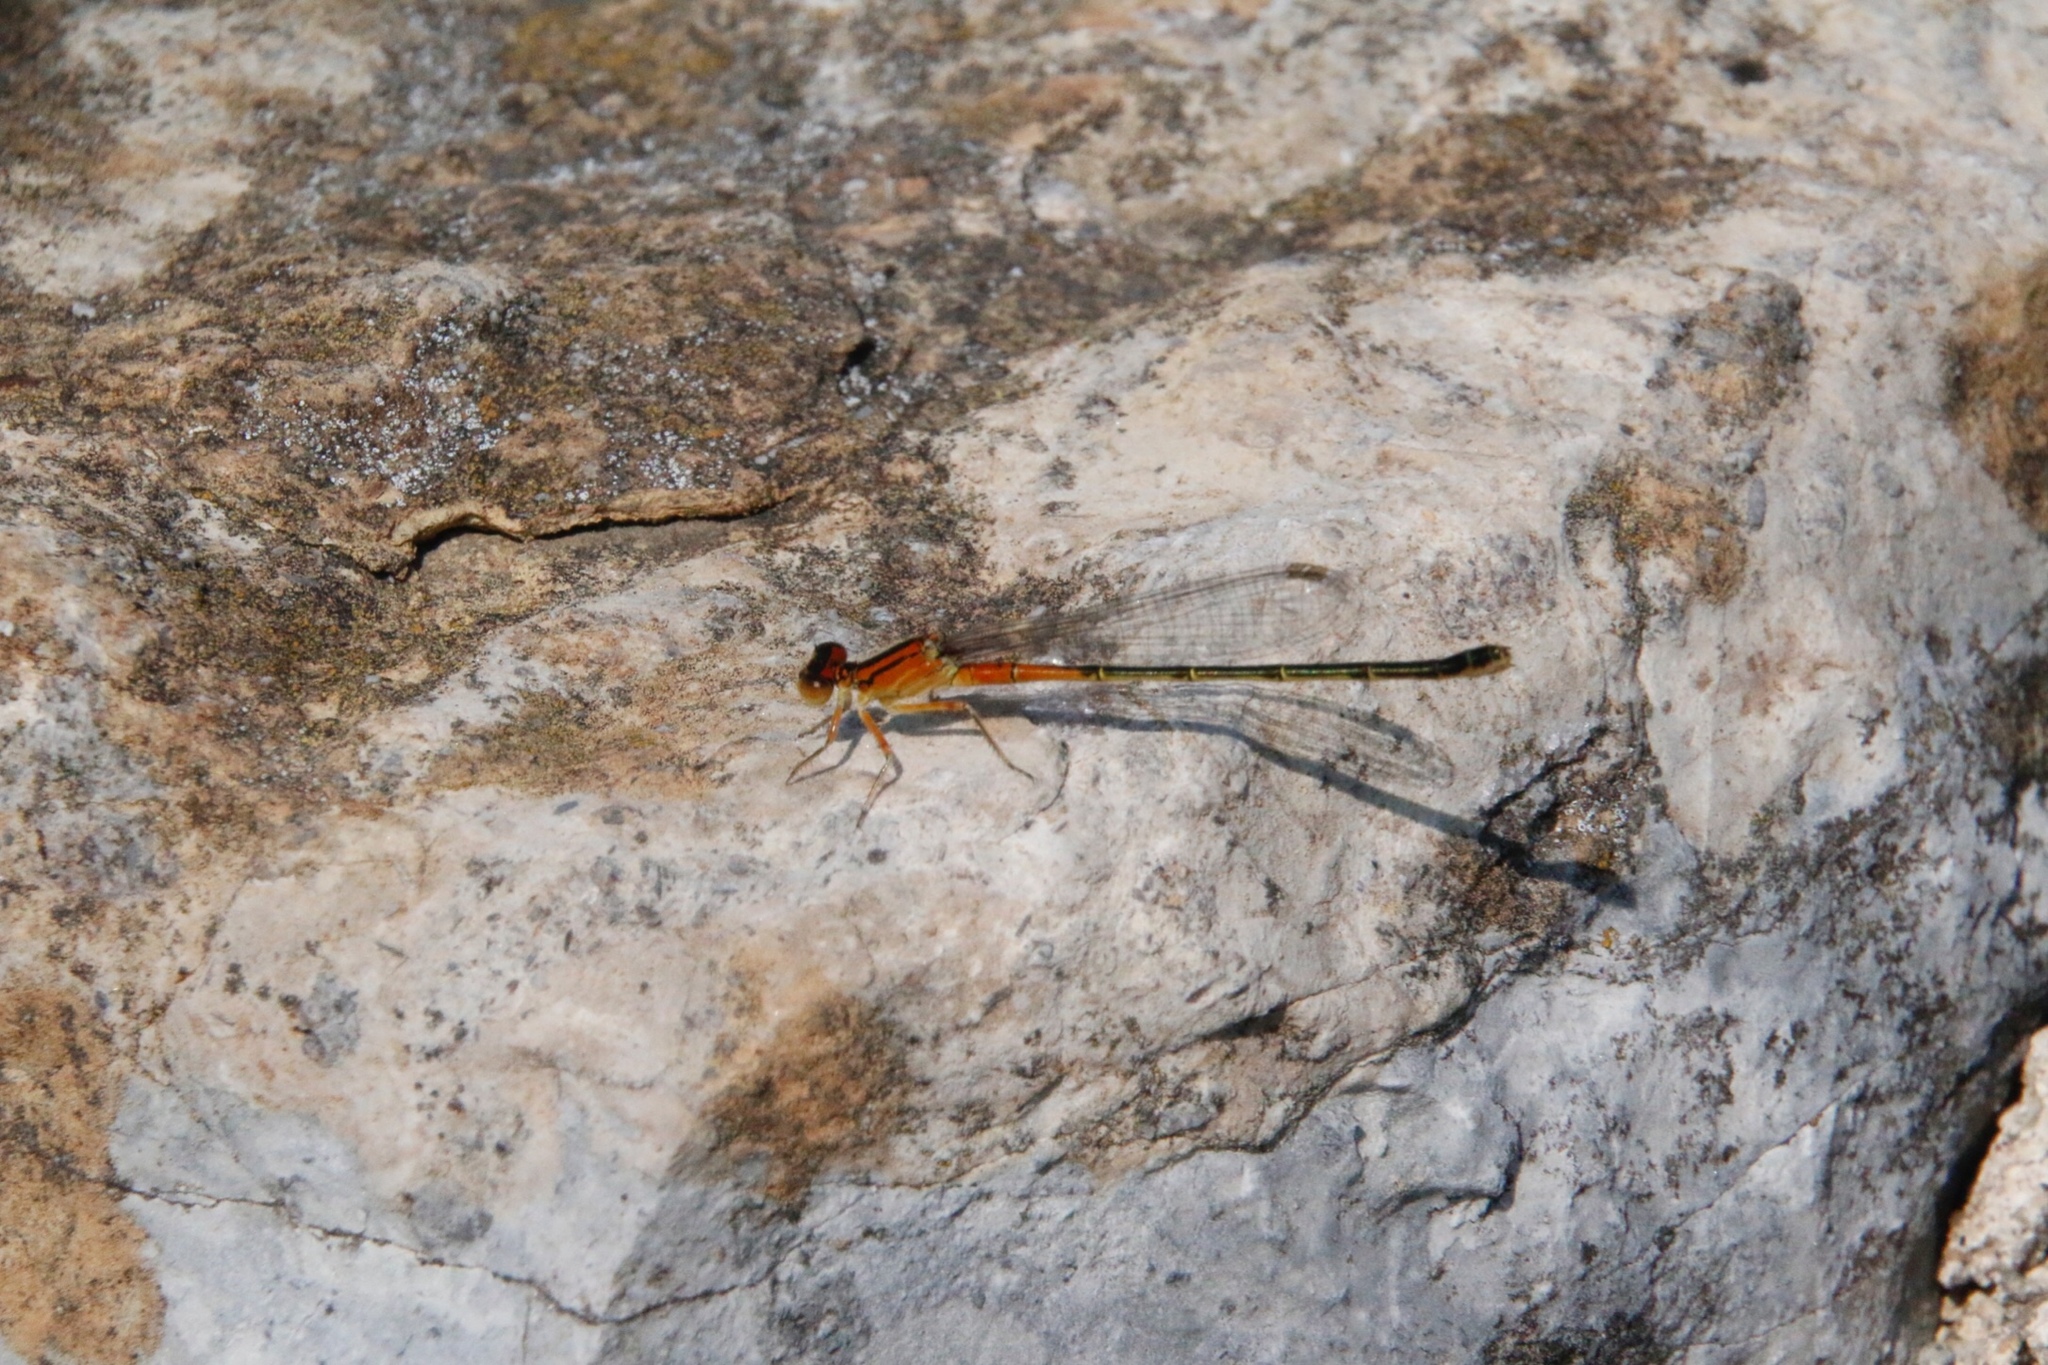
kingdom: Animalia
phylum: Arthropoda
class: Insecta
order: Odonata
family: Coenagrionidae
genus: Ischnura
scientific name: Ischnura verticalis
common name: Eastern forktail
